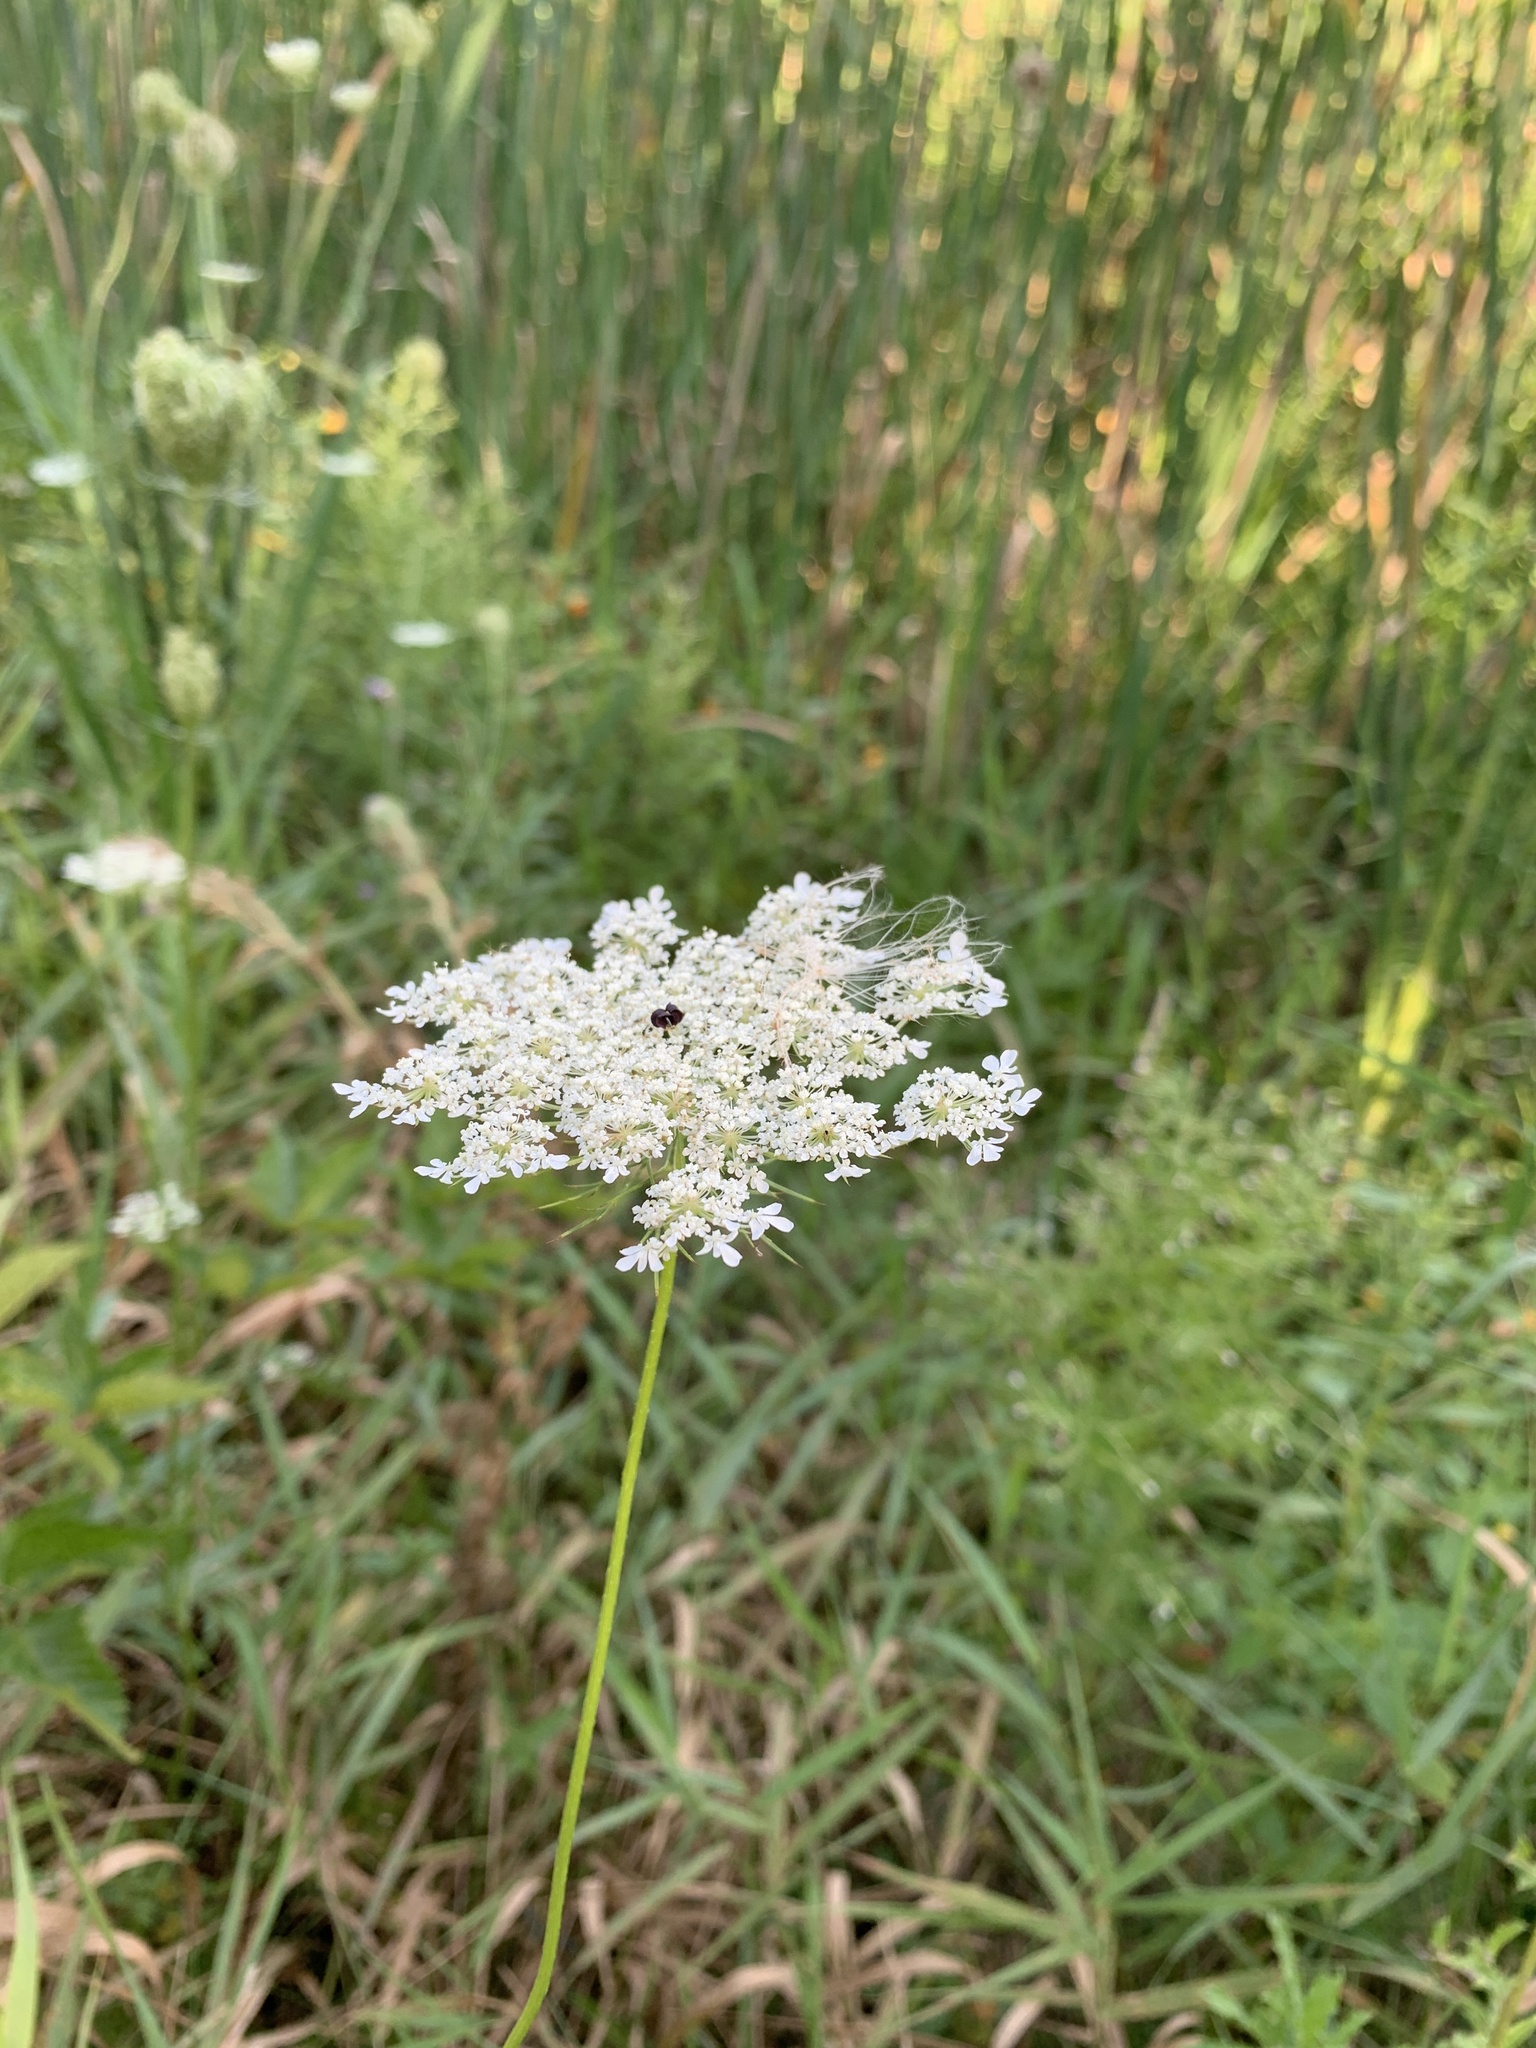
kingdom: Plantae
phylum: Tracheophyta
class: Magnoliopsida
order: Apiales
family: Apiaceae
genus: Daucus
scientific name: Daucus carota
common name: Wild carrot
